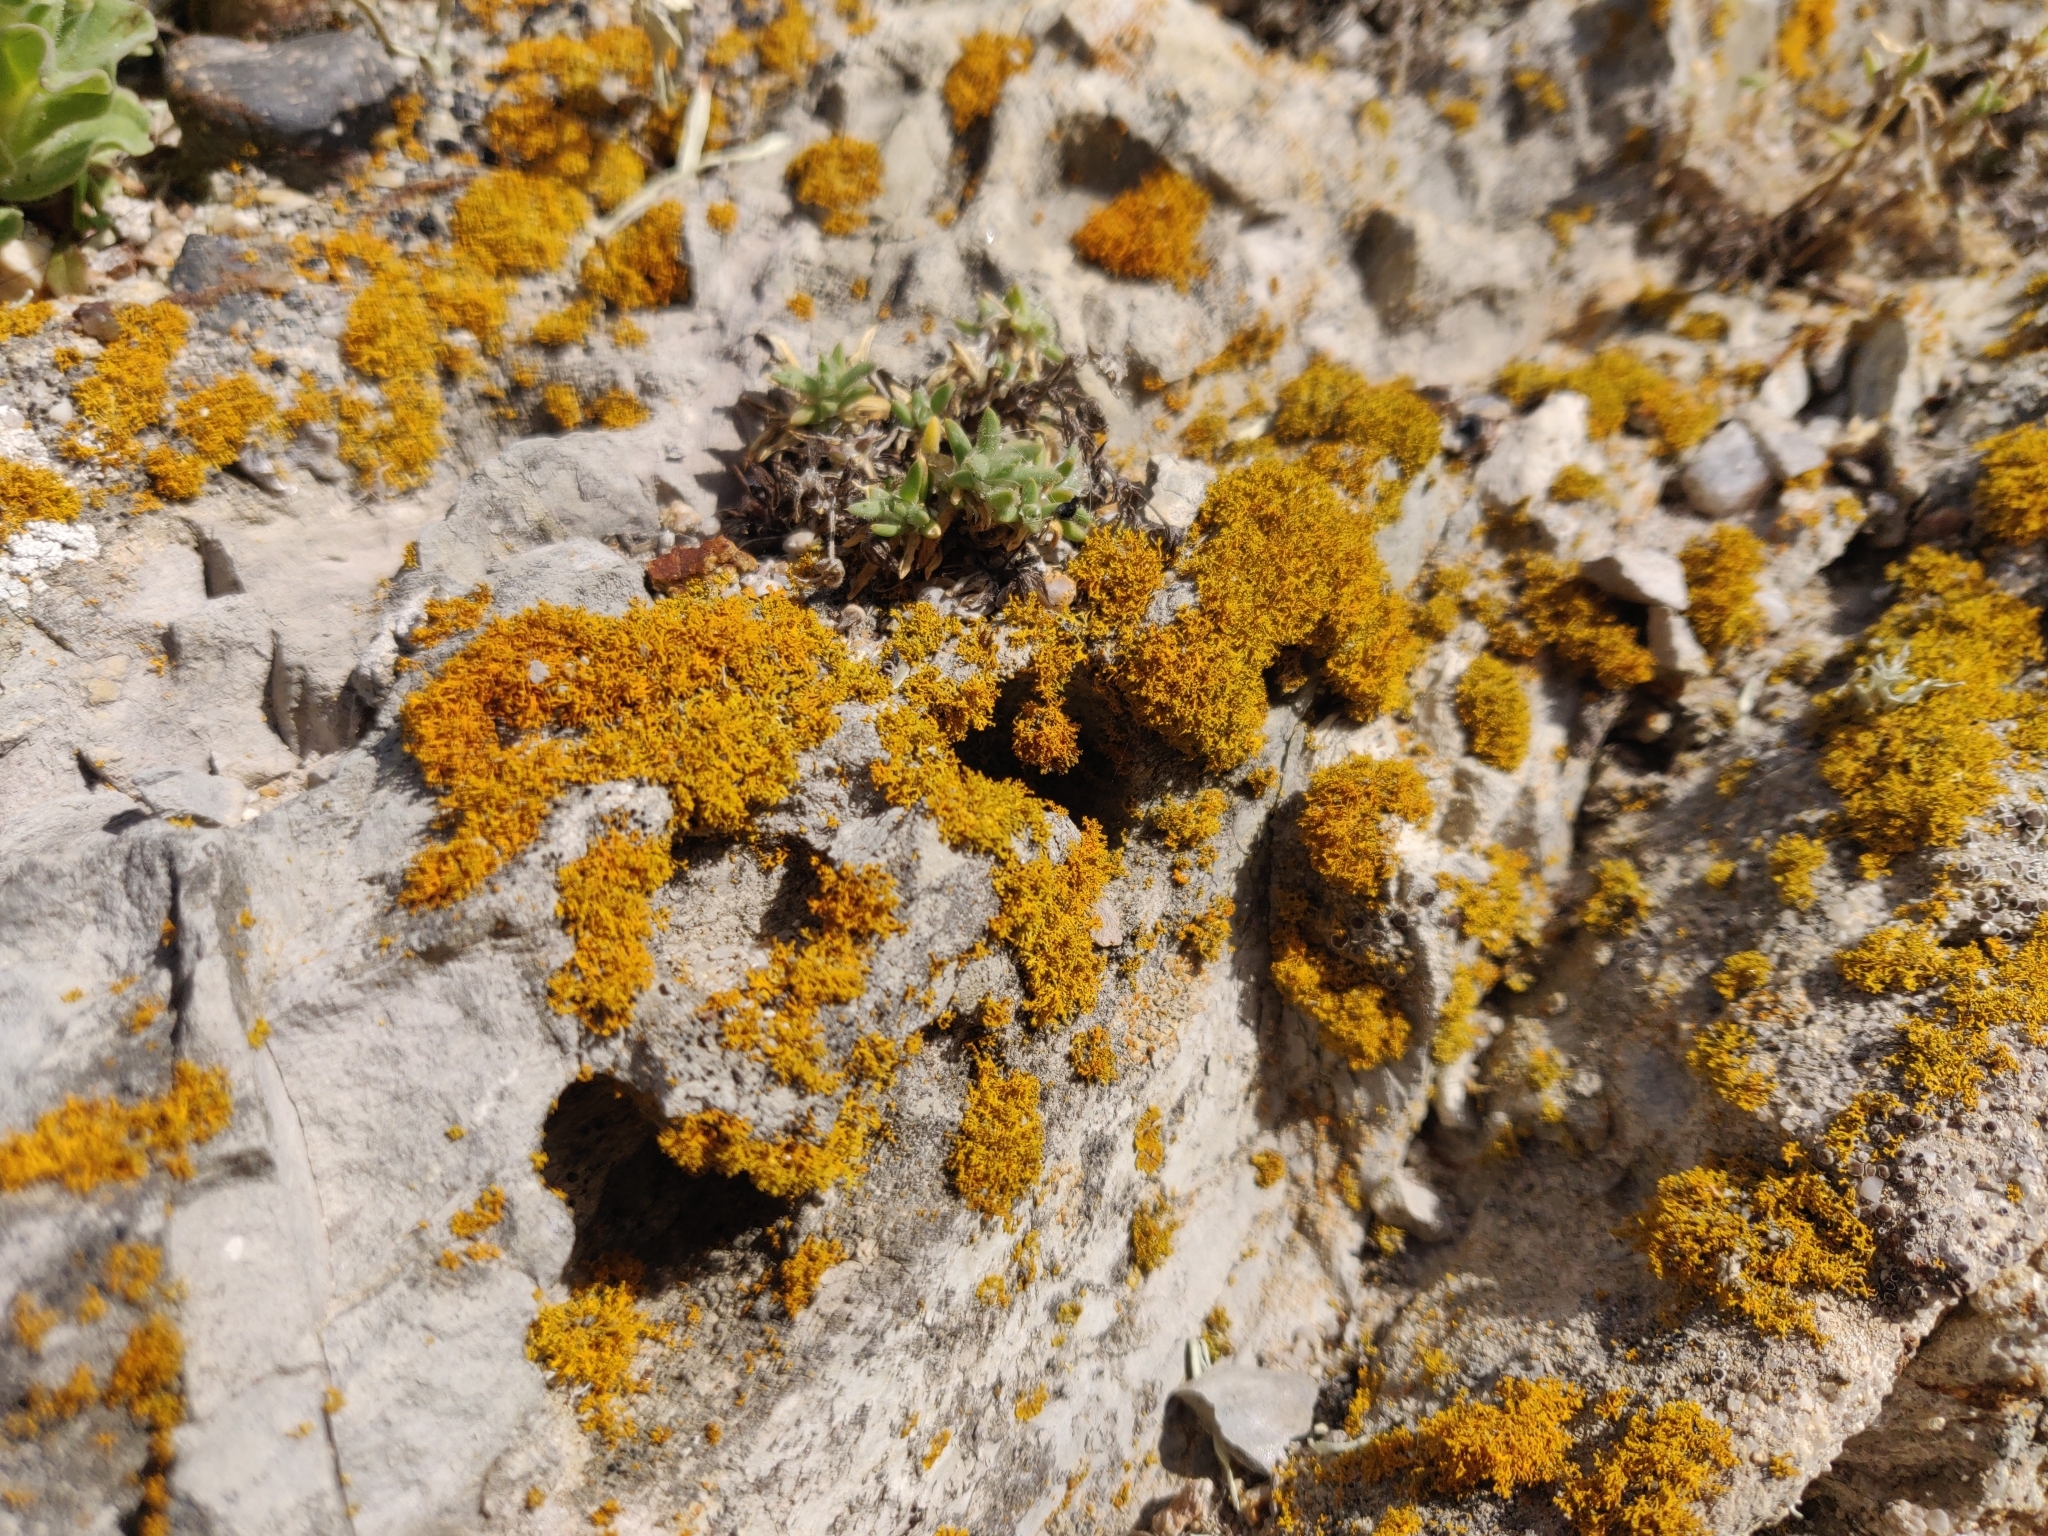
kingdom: Fungi
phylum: Ascomycota
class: Lecanoromycetes
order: Teloschistales
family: Teloschistaceae
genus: Polycauliona
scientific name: Polycauliona candelaria
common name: Shrubby sunburst lichen
